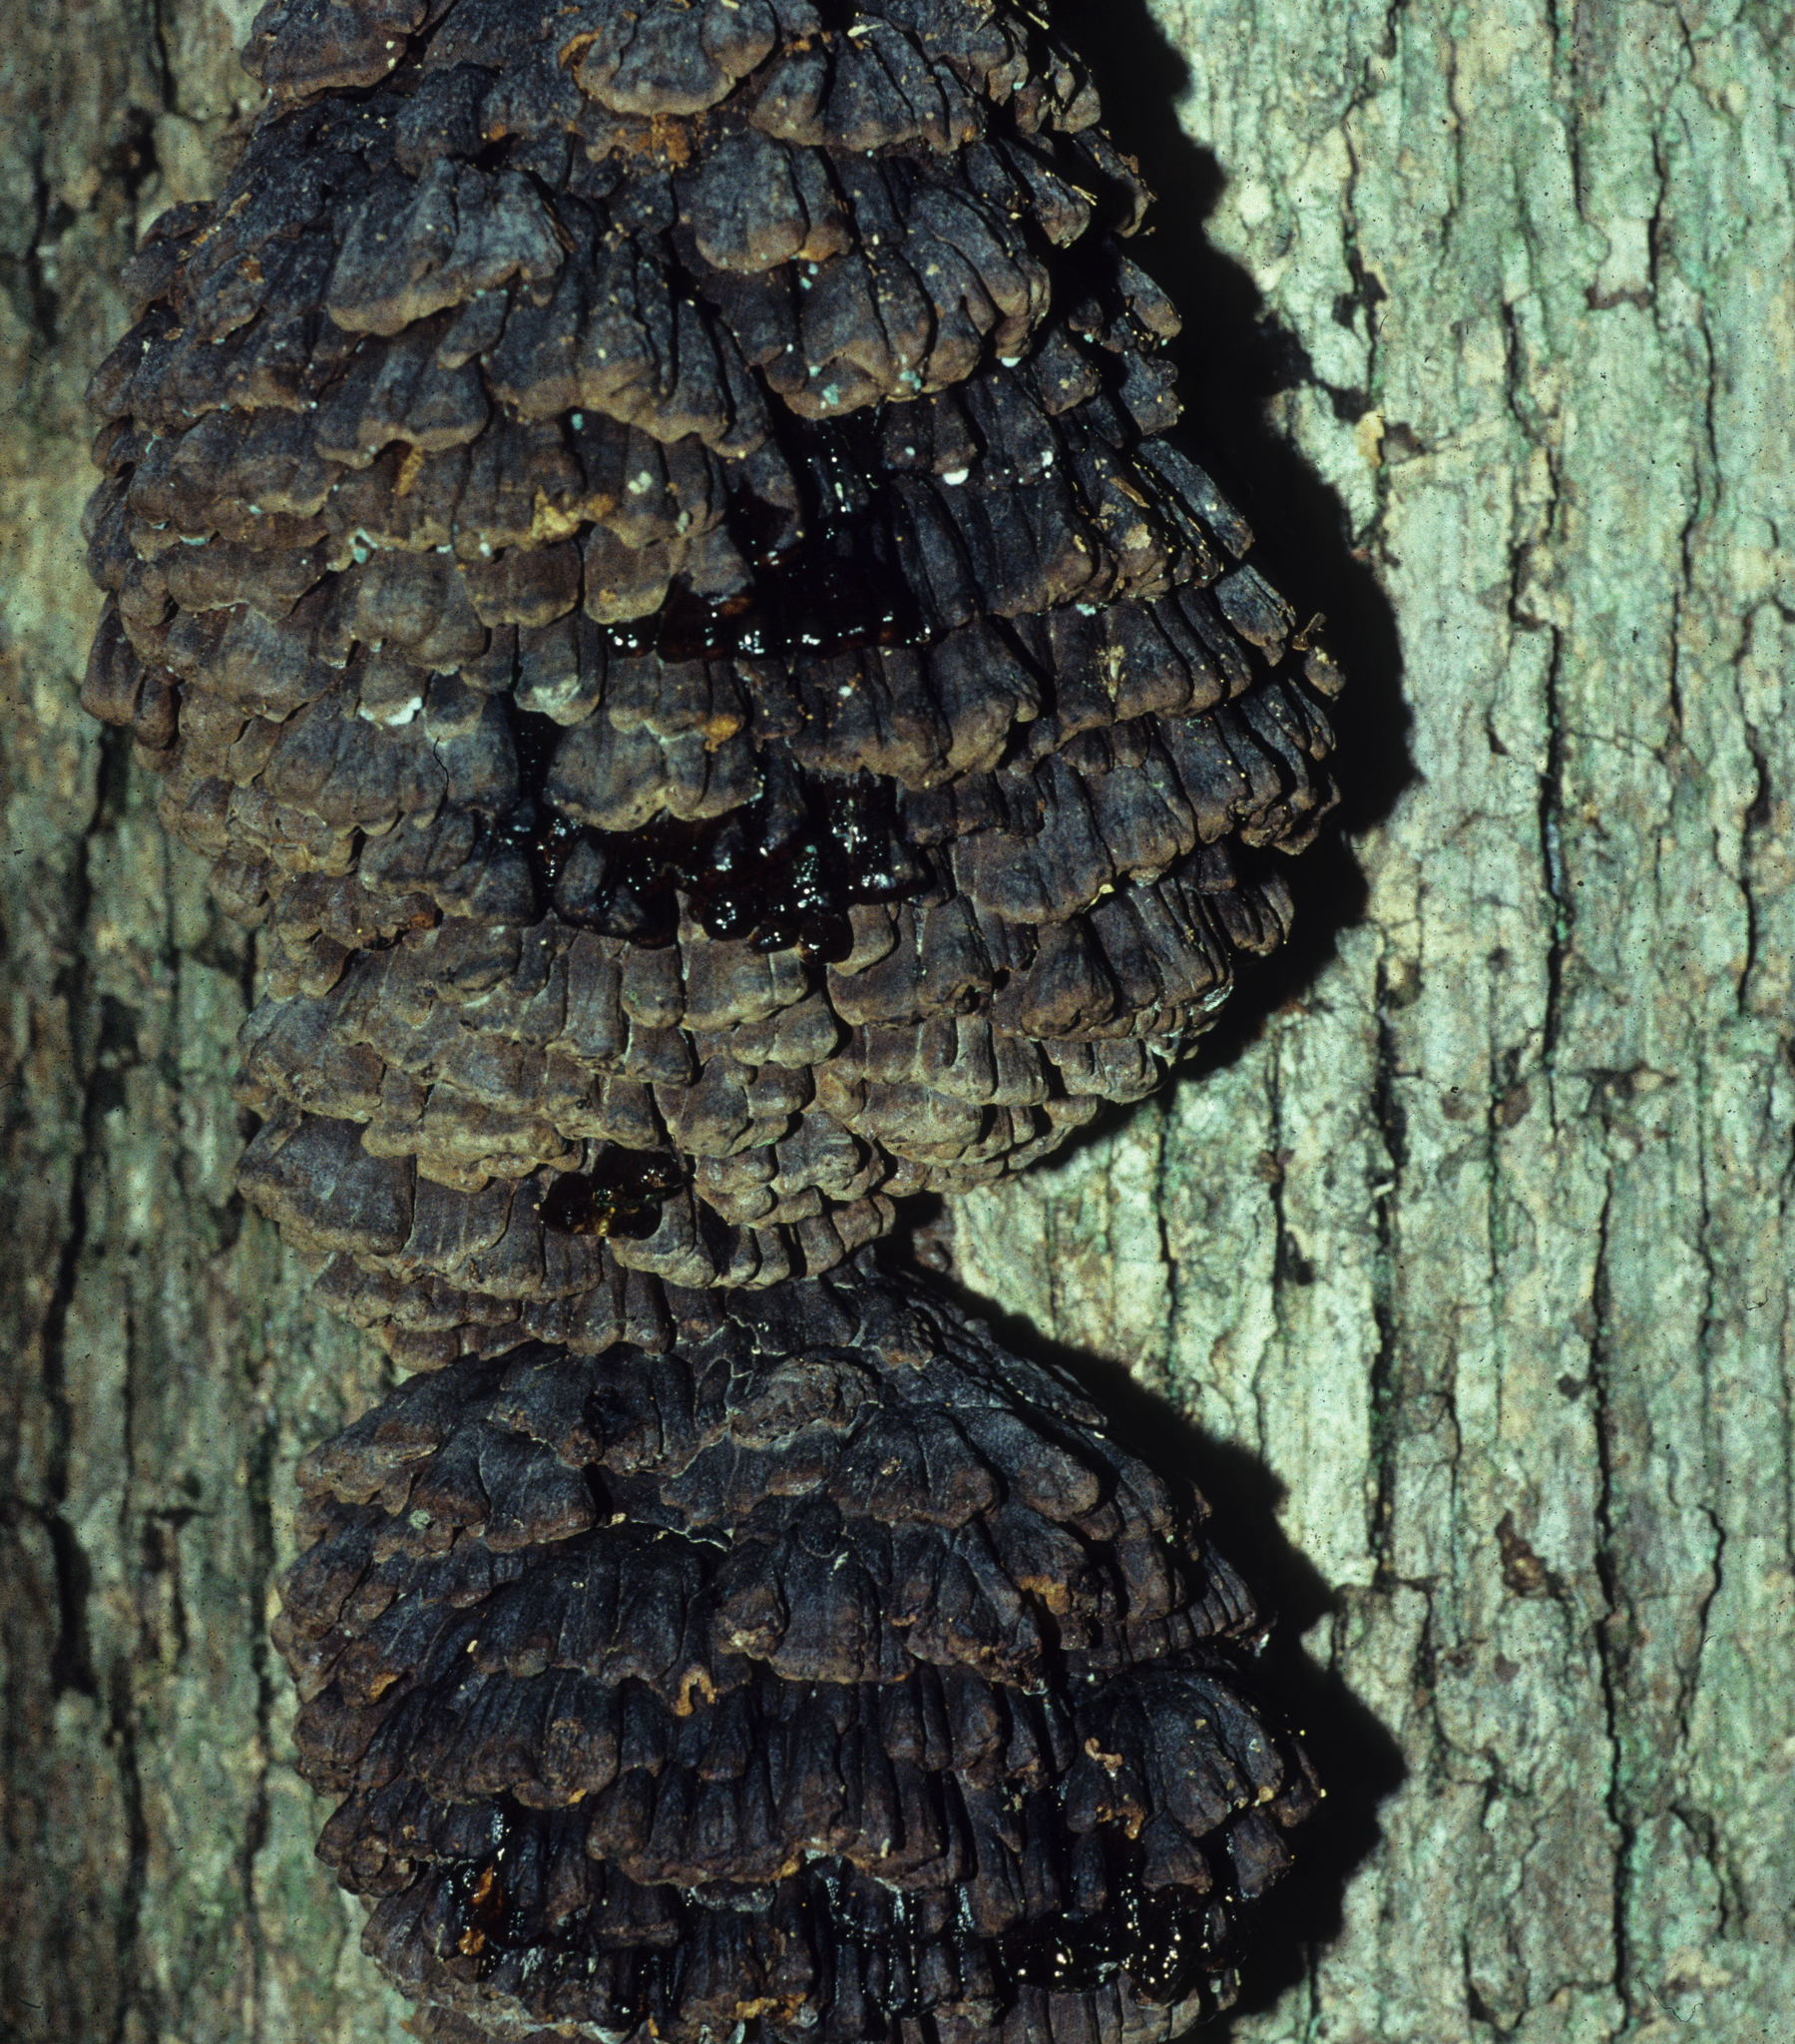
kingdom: Fungi
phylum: Basidiomycota
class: Agaricomycetes
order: Polyporales
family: Polyporaceae
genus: Globifomes
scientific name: Globifomes graveolens
